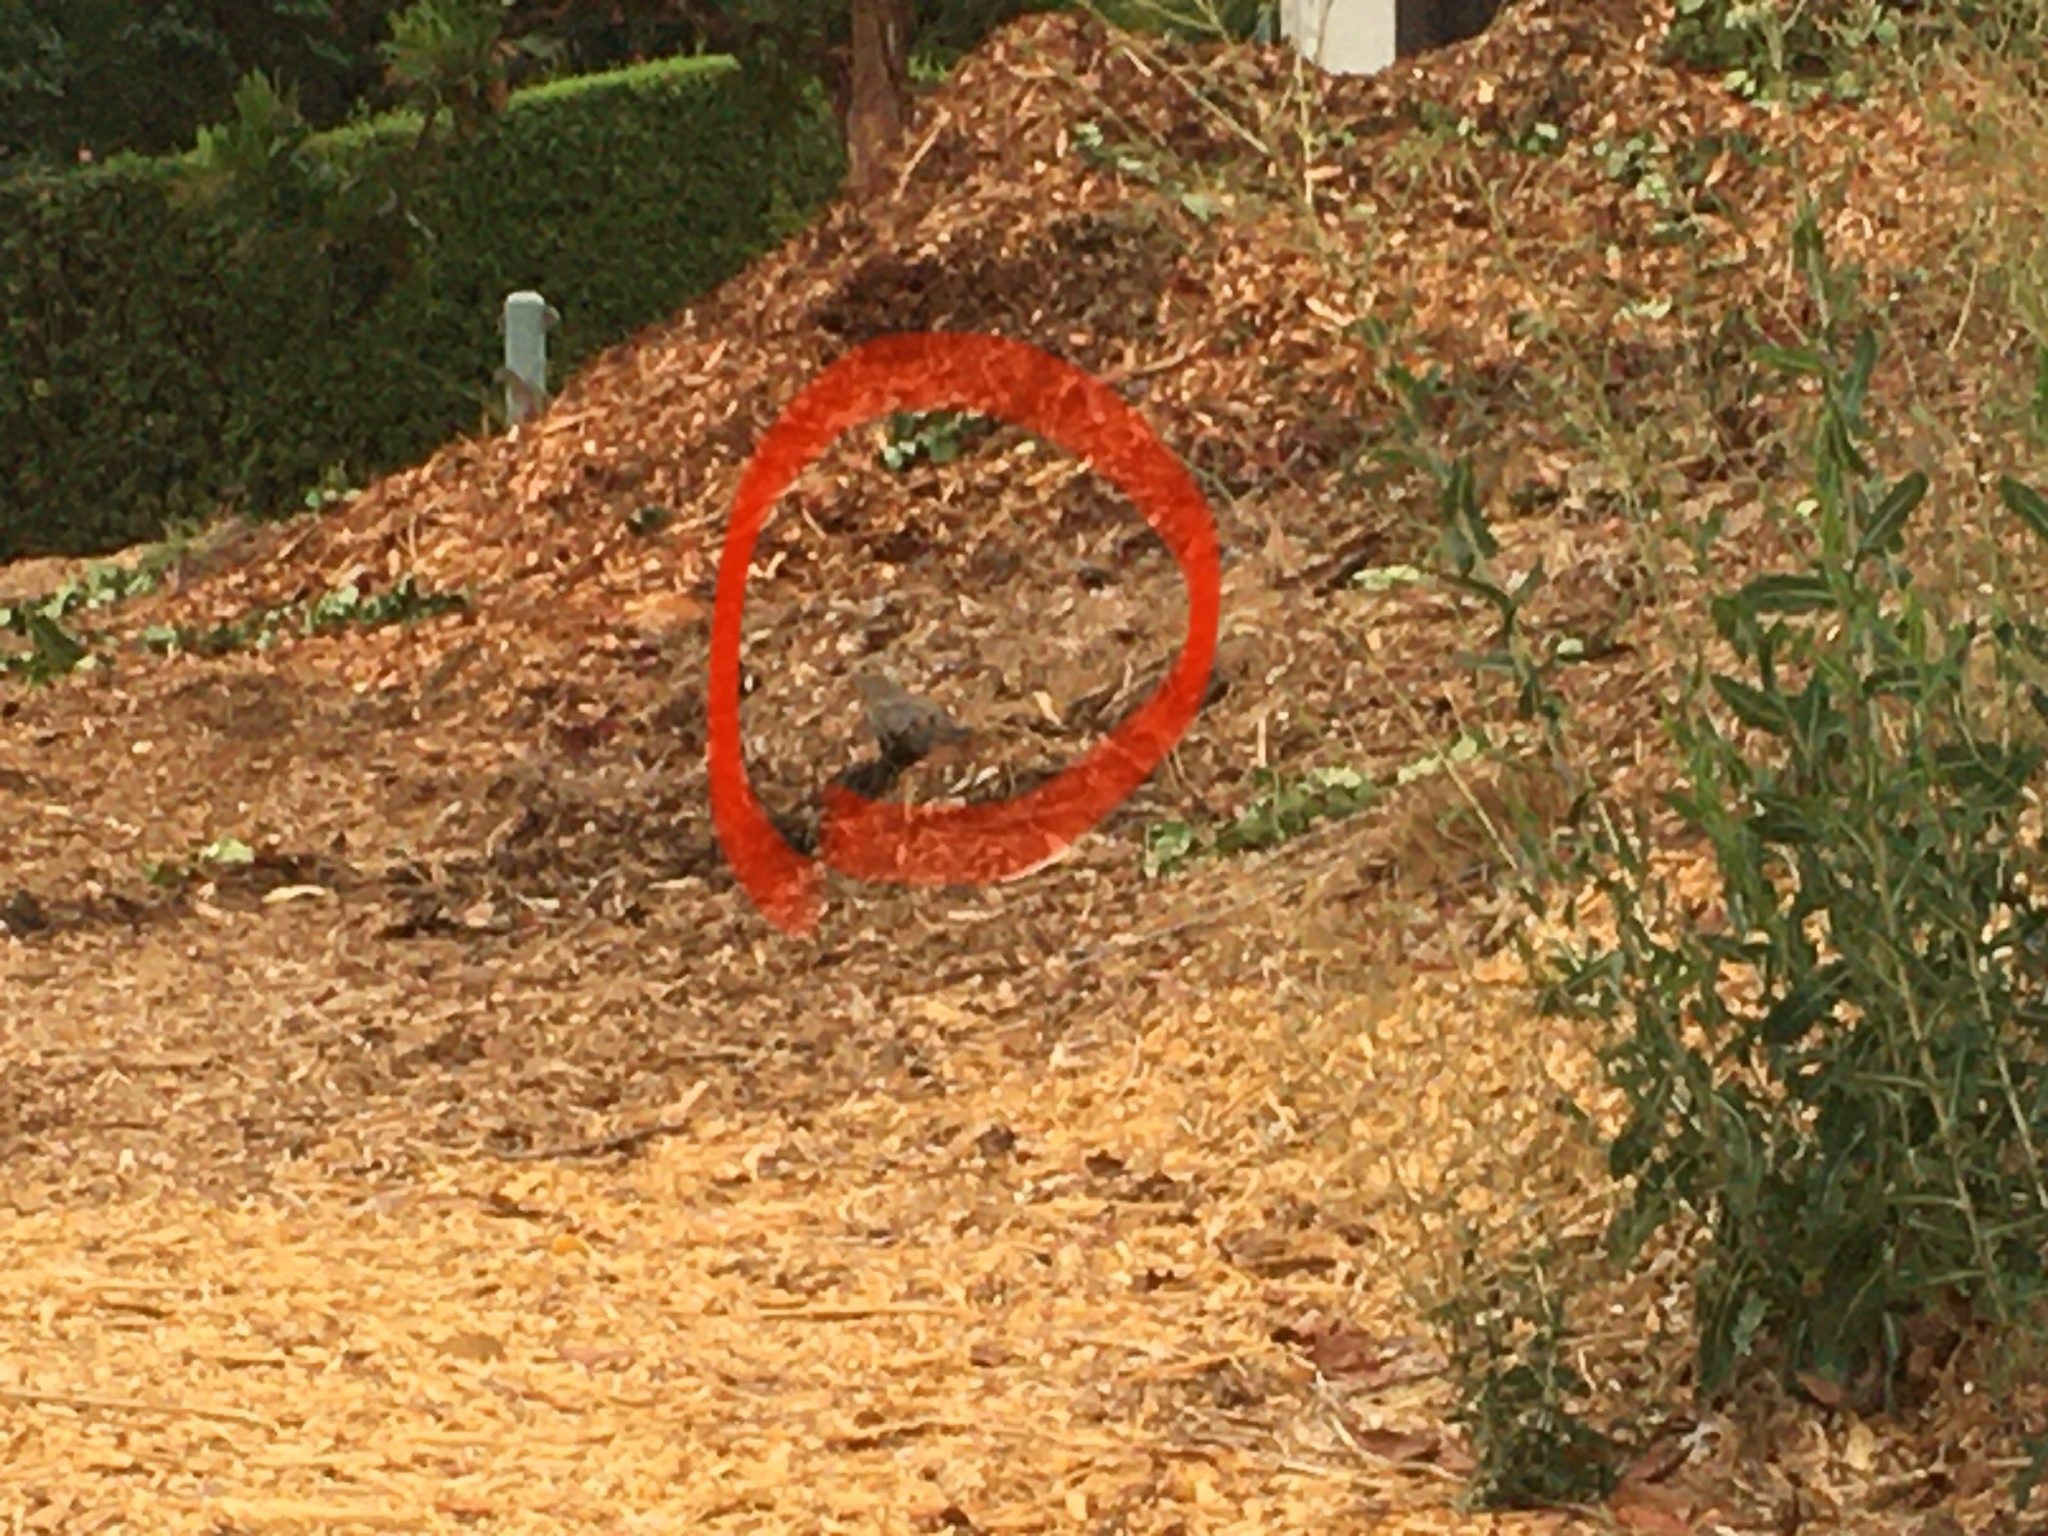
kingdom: Animalia
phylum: Chordata
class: Aves
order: Columbiformes
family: Columbidae
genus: Zenaida
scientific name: Zenaida macroura
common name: Mourning dove
